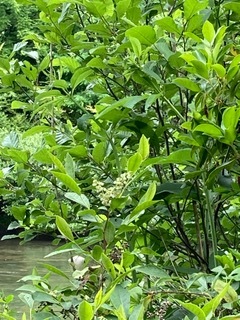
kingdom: Plantae
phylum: Tracheophyta
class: Magnoliopsida
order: Dipsacales
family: Viburnaceae
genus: Viburnum
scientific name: Viburnum
